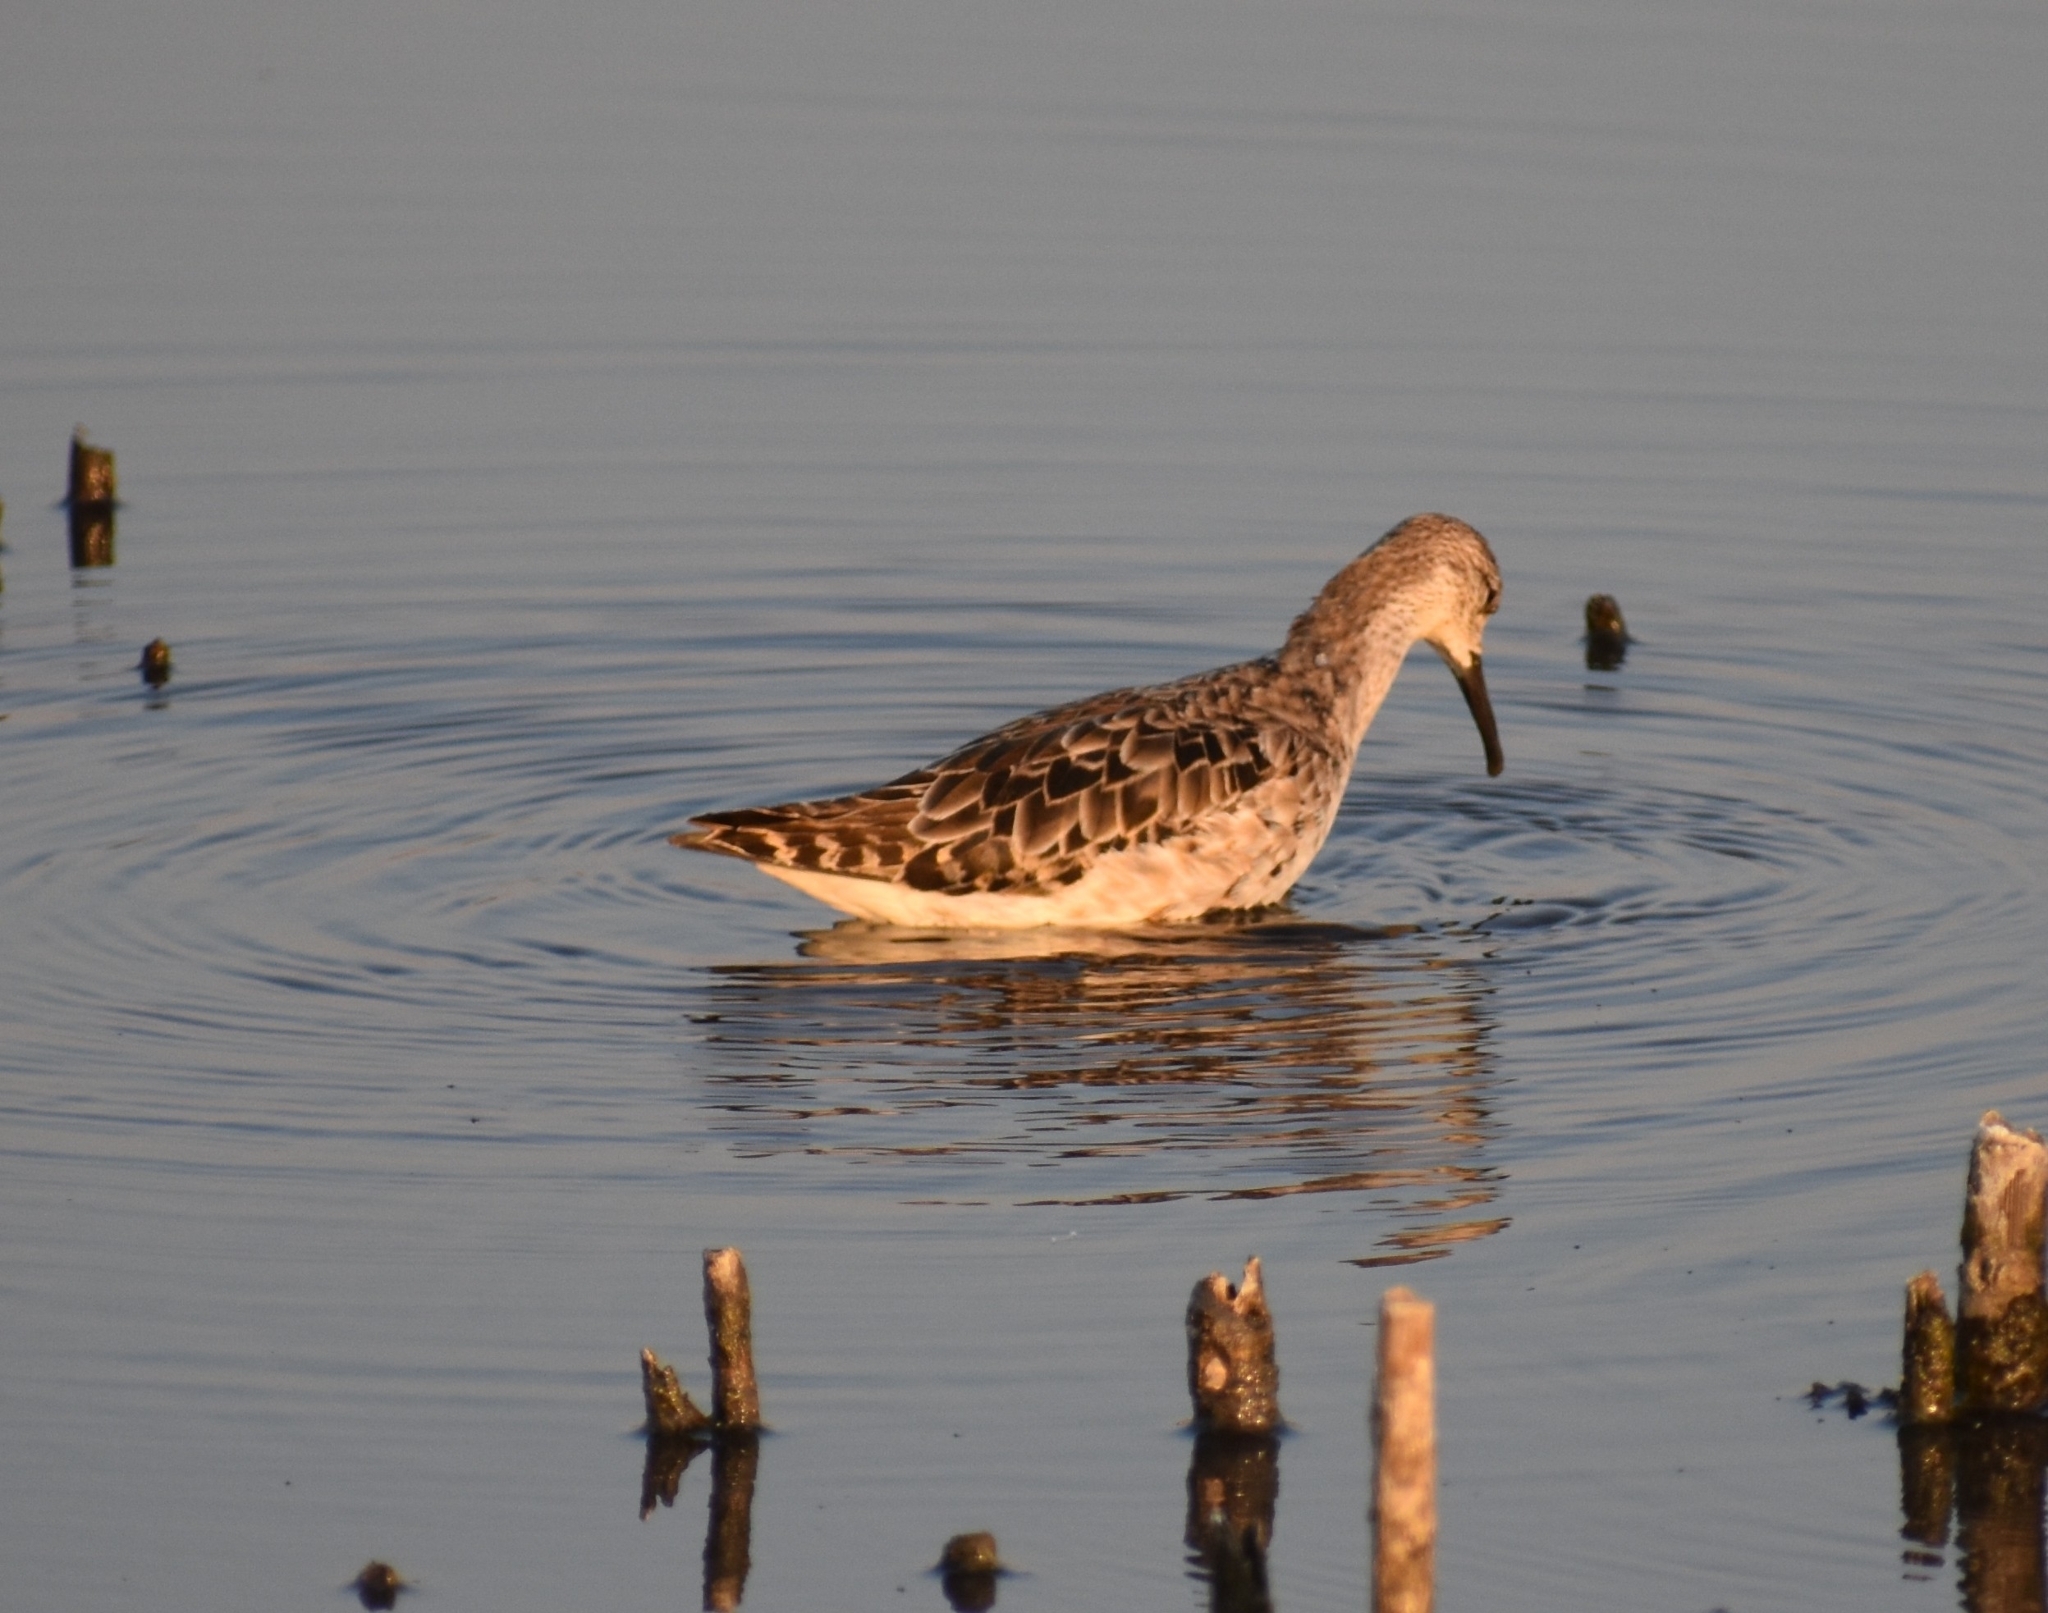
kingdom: Animalia
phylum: Chordata
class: Aves
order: Charadriiformes
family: Scolopacidae
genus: Calidris
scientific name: Calidris pugnax
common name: Ruff
